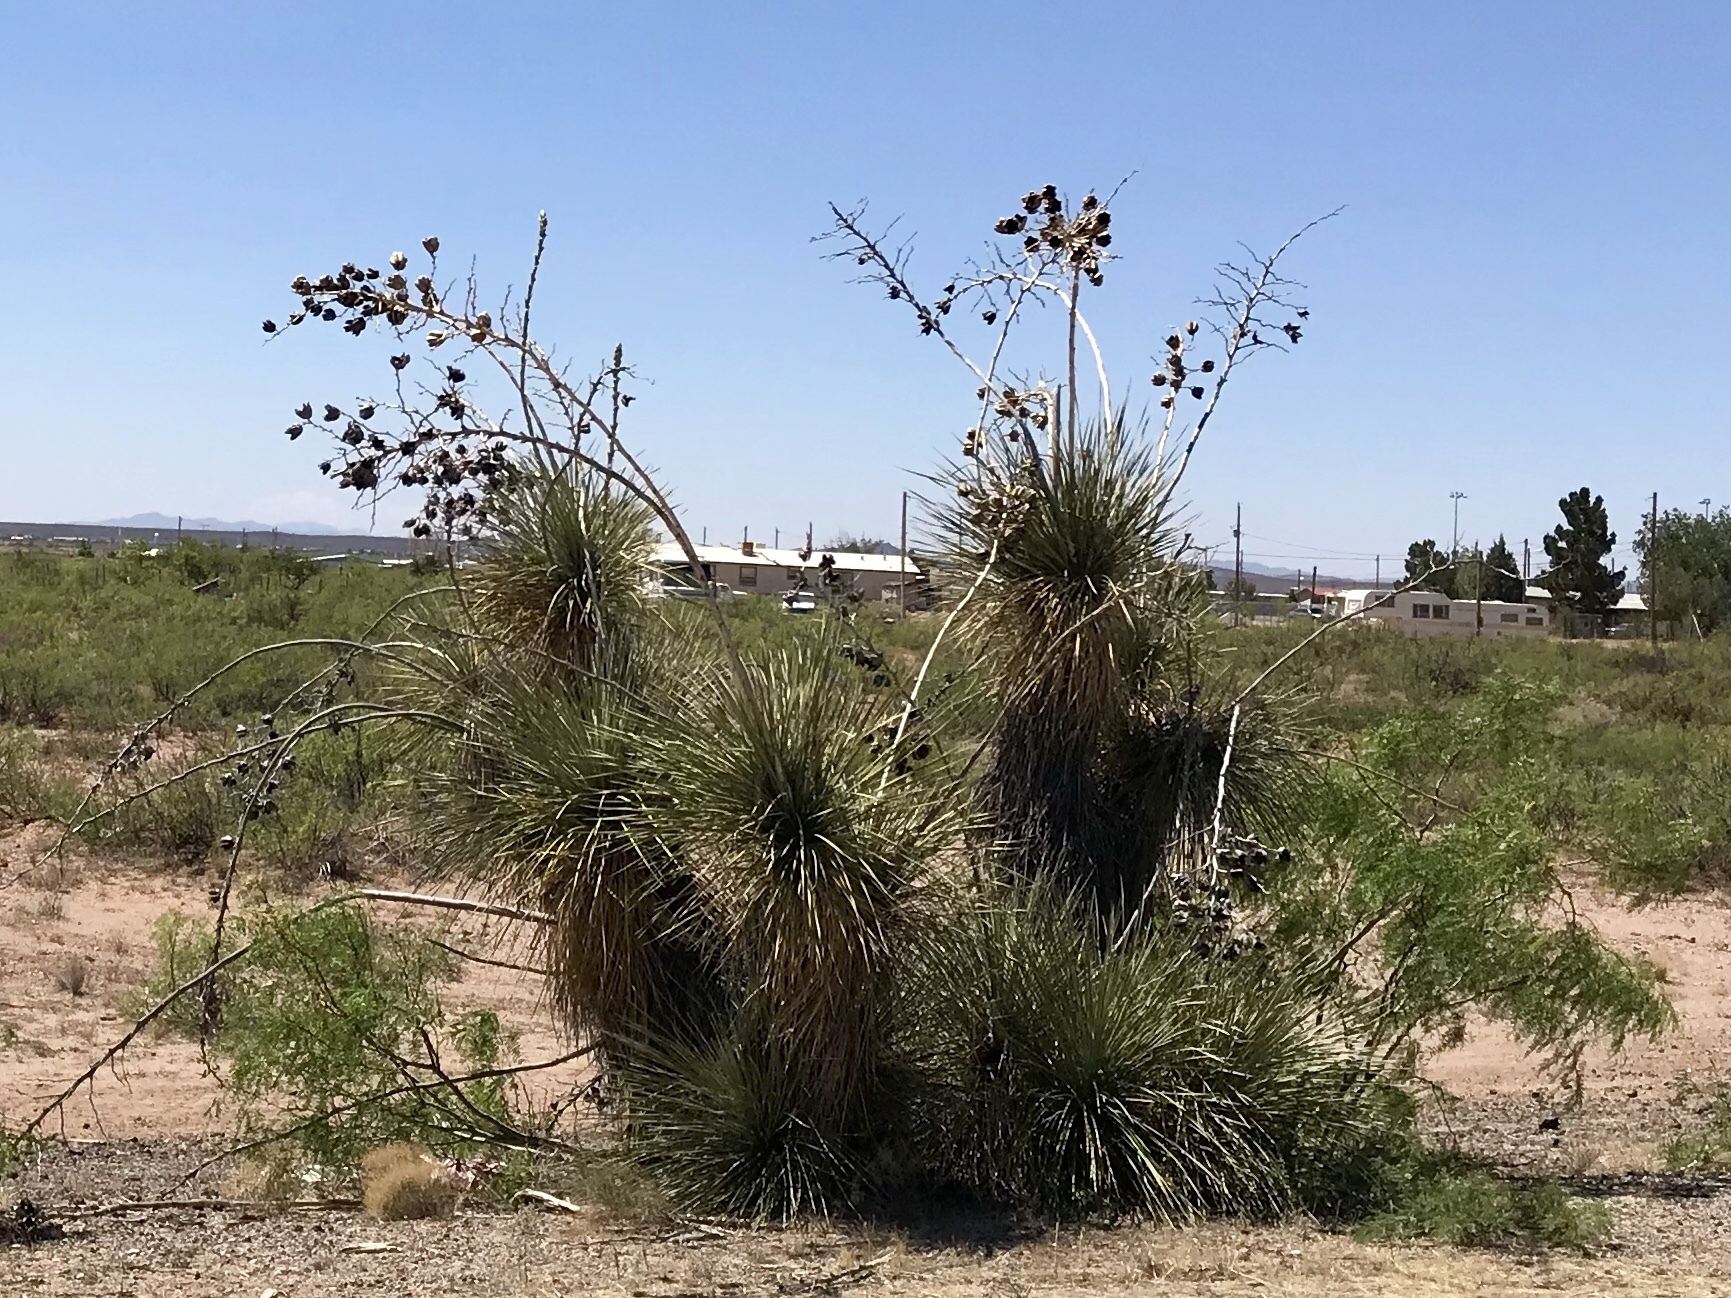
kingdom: Plantae
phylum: Tracheophyta
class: Liliopsida
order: Asparagales
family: Asparagaceae
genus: Yucca
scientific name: Yucca elata
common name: Palmella
